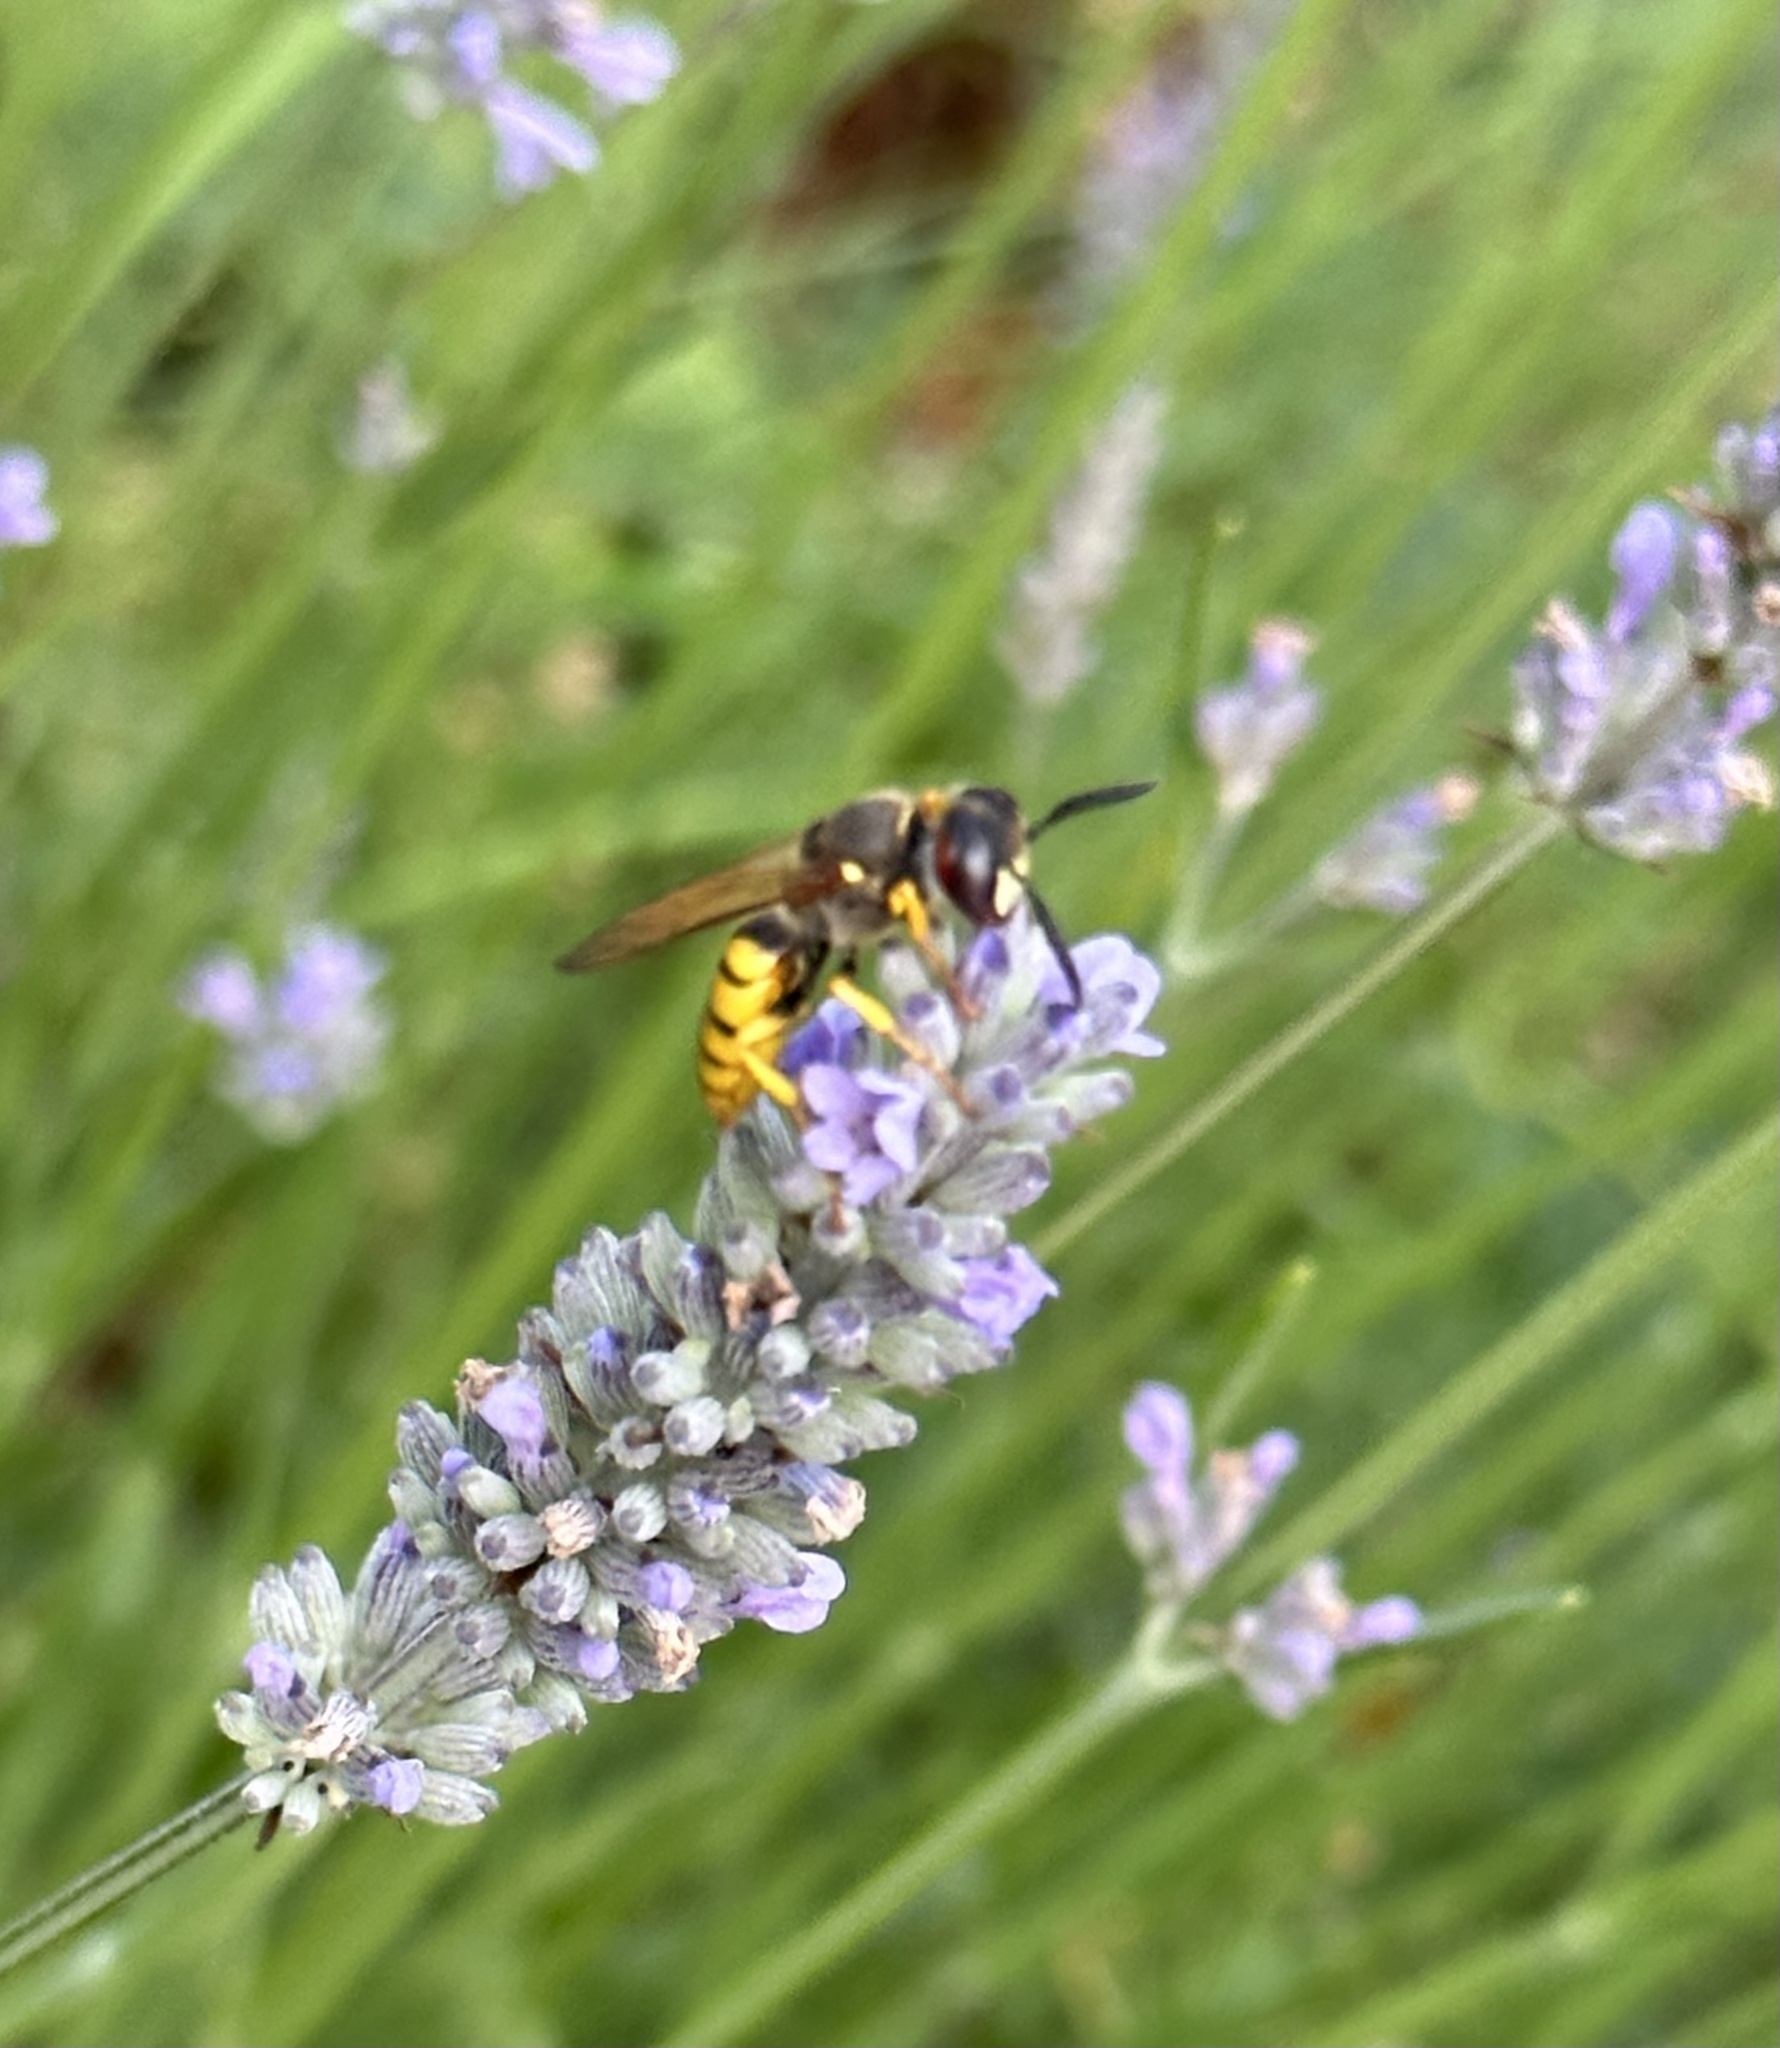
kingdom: Animalia
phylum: Arthropoda
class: Insecta
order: Hymenoptera
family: Crabronidae
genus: Philanthus
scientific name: Philanthus triangulum
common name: Bee wolf
